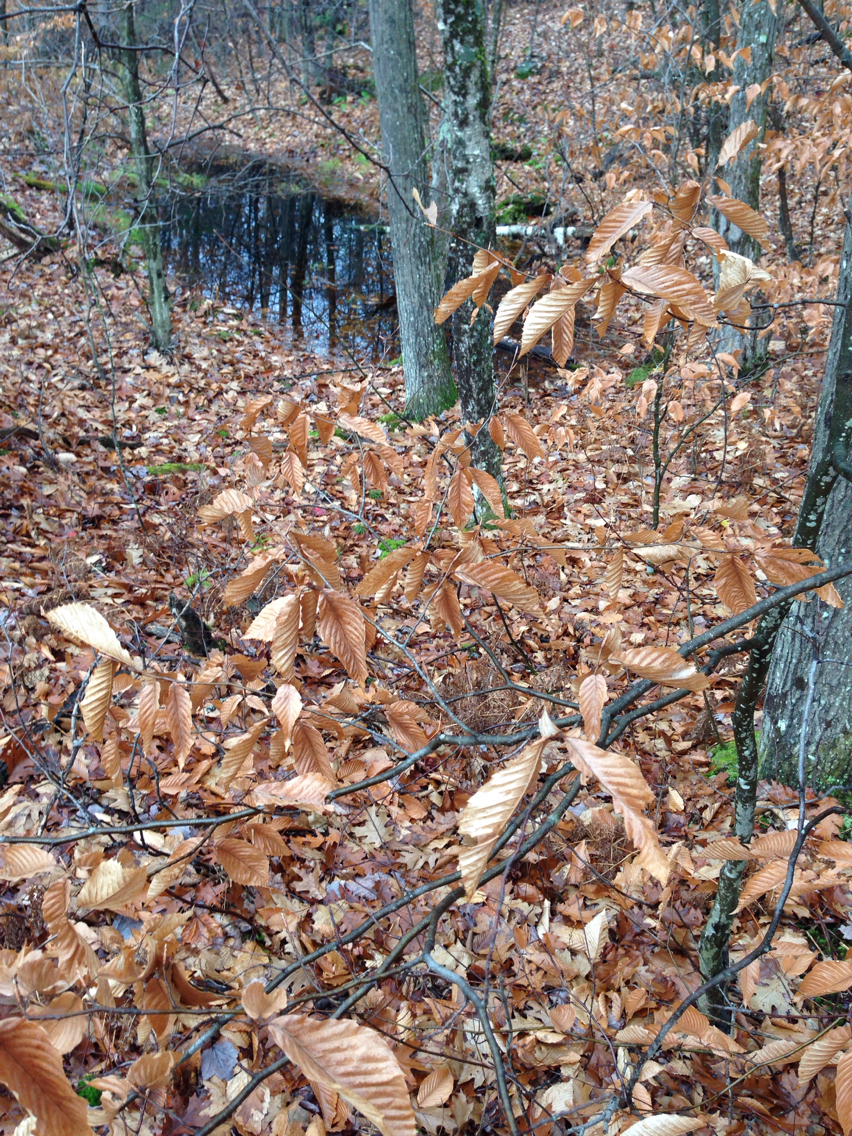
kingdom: Plantae
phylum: Tracheophyta
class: Magnoliopsida
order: Fagales
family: Fagaceae
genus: Fagus
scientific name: Fagus grandifolia
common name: American beech
